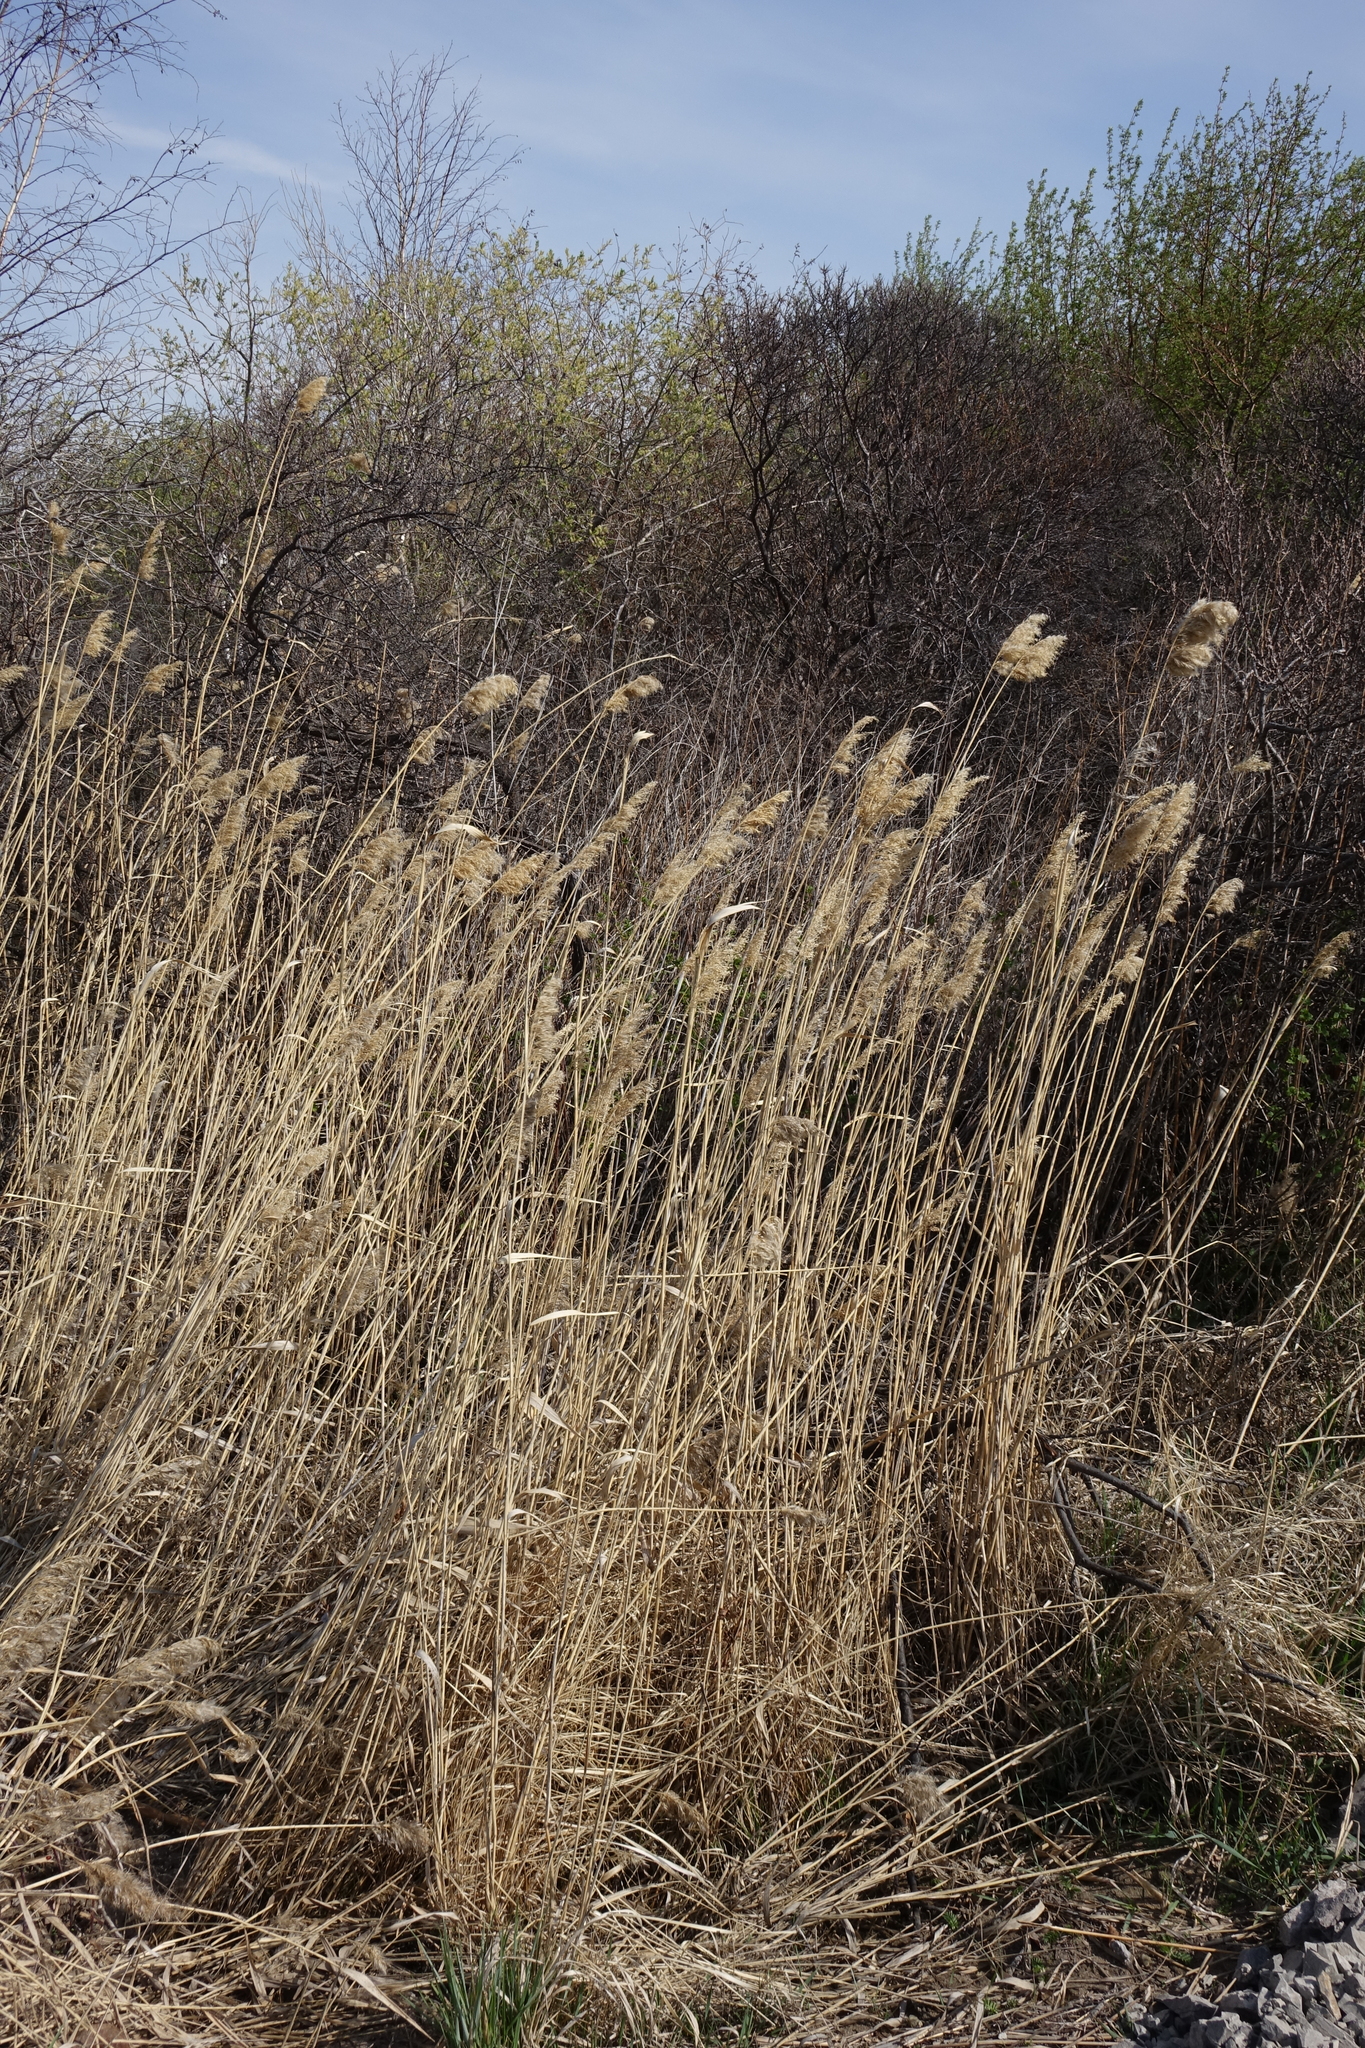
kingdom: Plantae
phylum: Tracheophyta
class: Liliopsida
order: Poales
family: Poaceae
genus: Phragmites
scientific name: Phragmites australis
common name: Common reed
